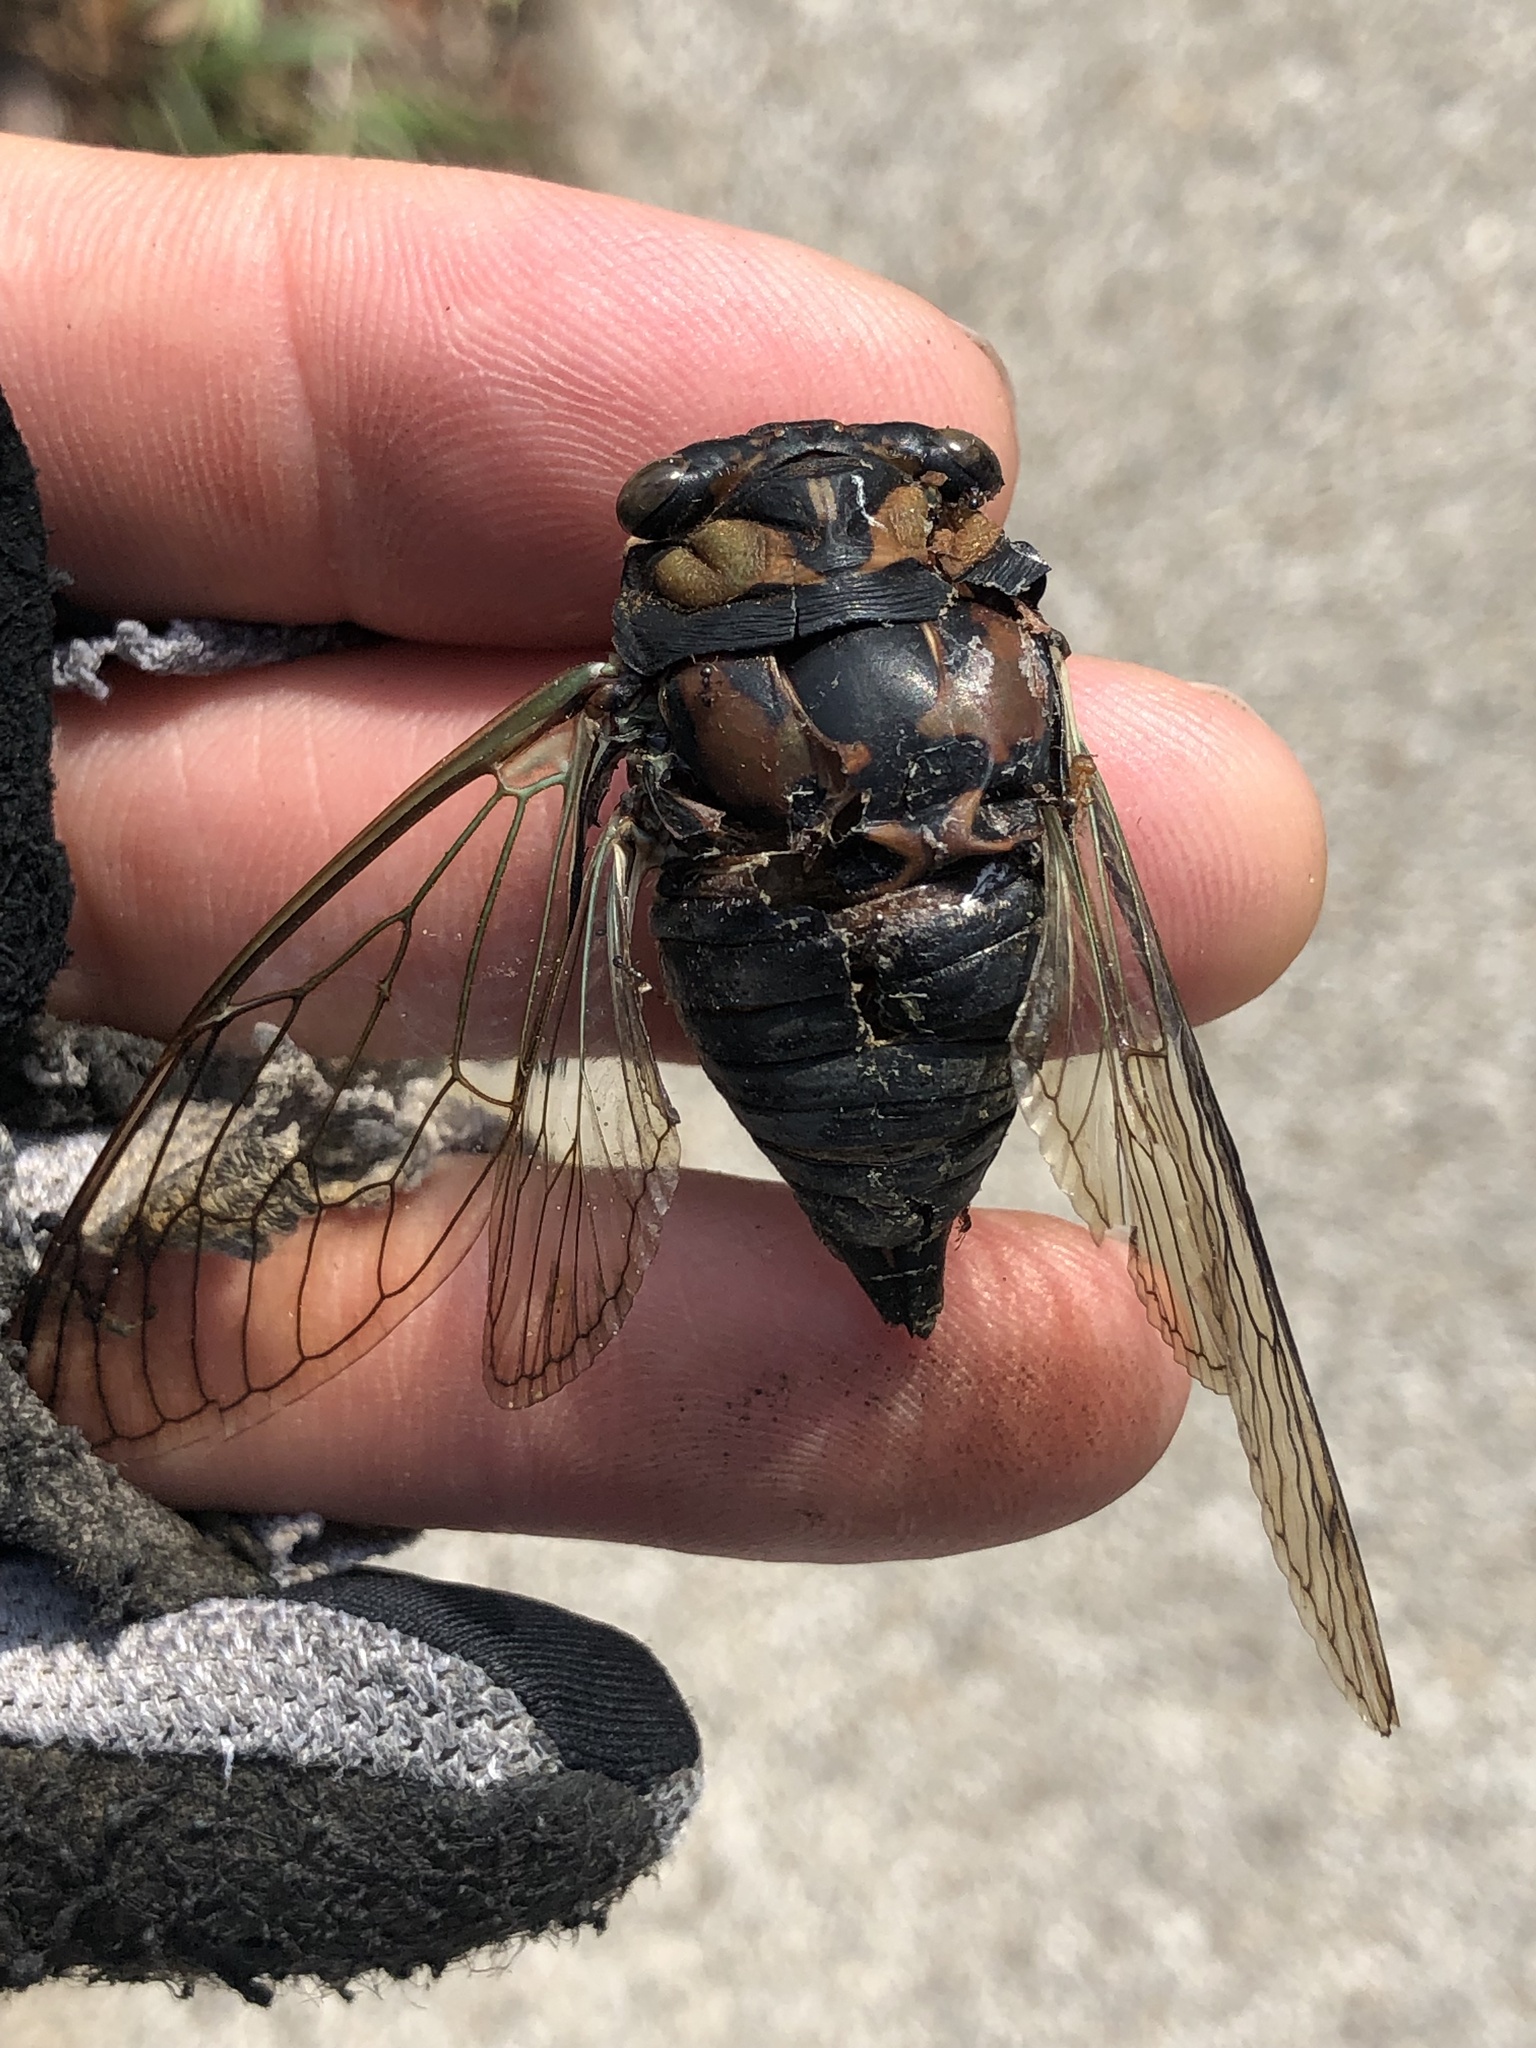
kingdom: Animalia
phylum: Arthropoda
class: Insecta
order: Hemiptera
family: Cicadidae
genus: Neotibicen
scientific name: Neotibicen lyricen
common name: Lyric cicada
